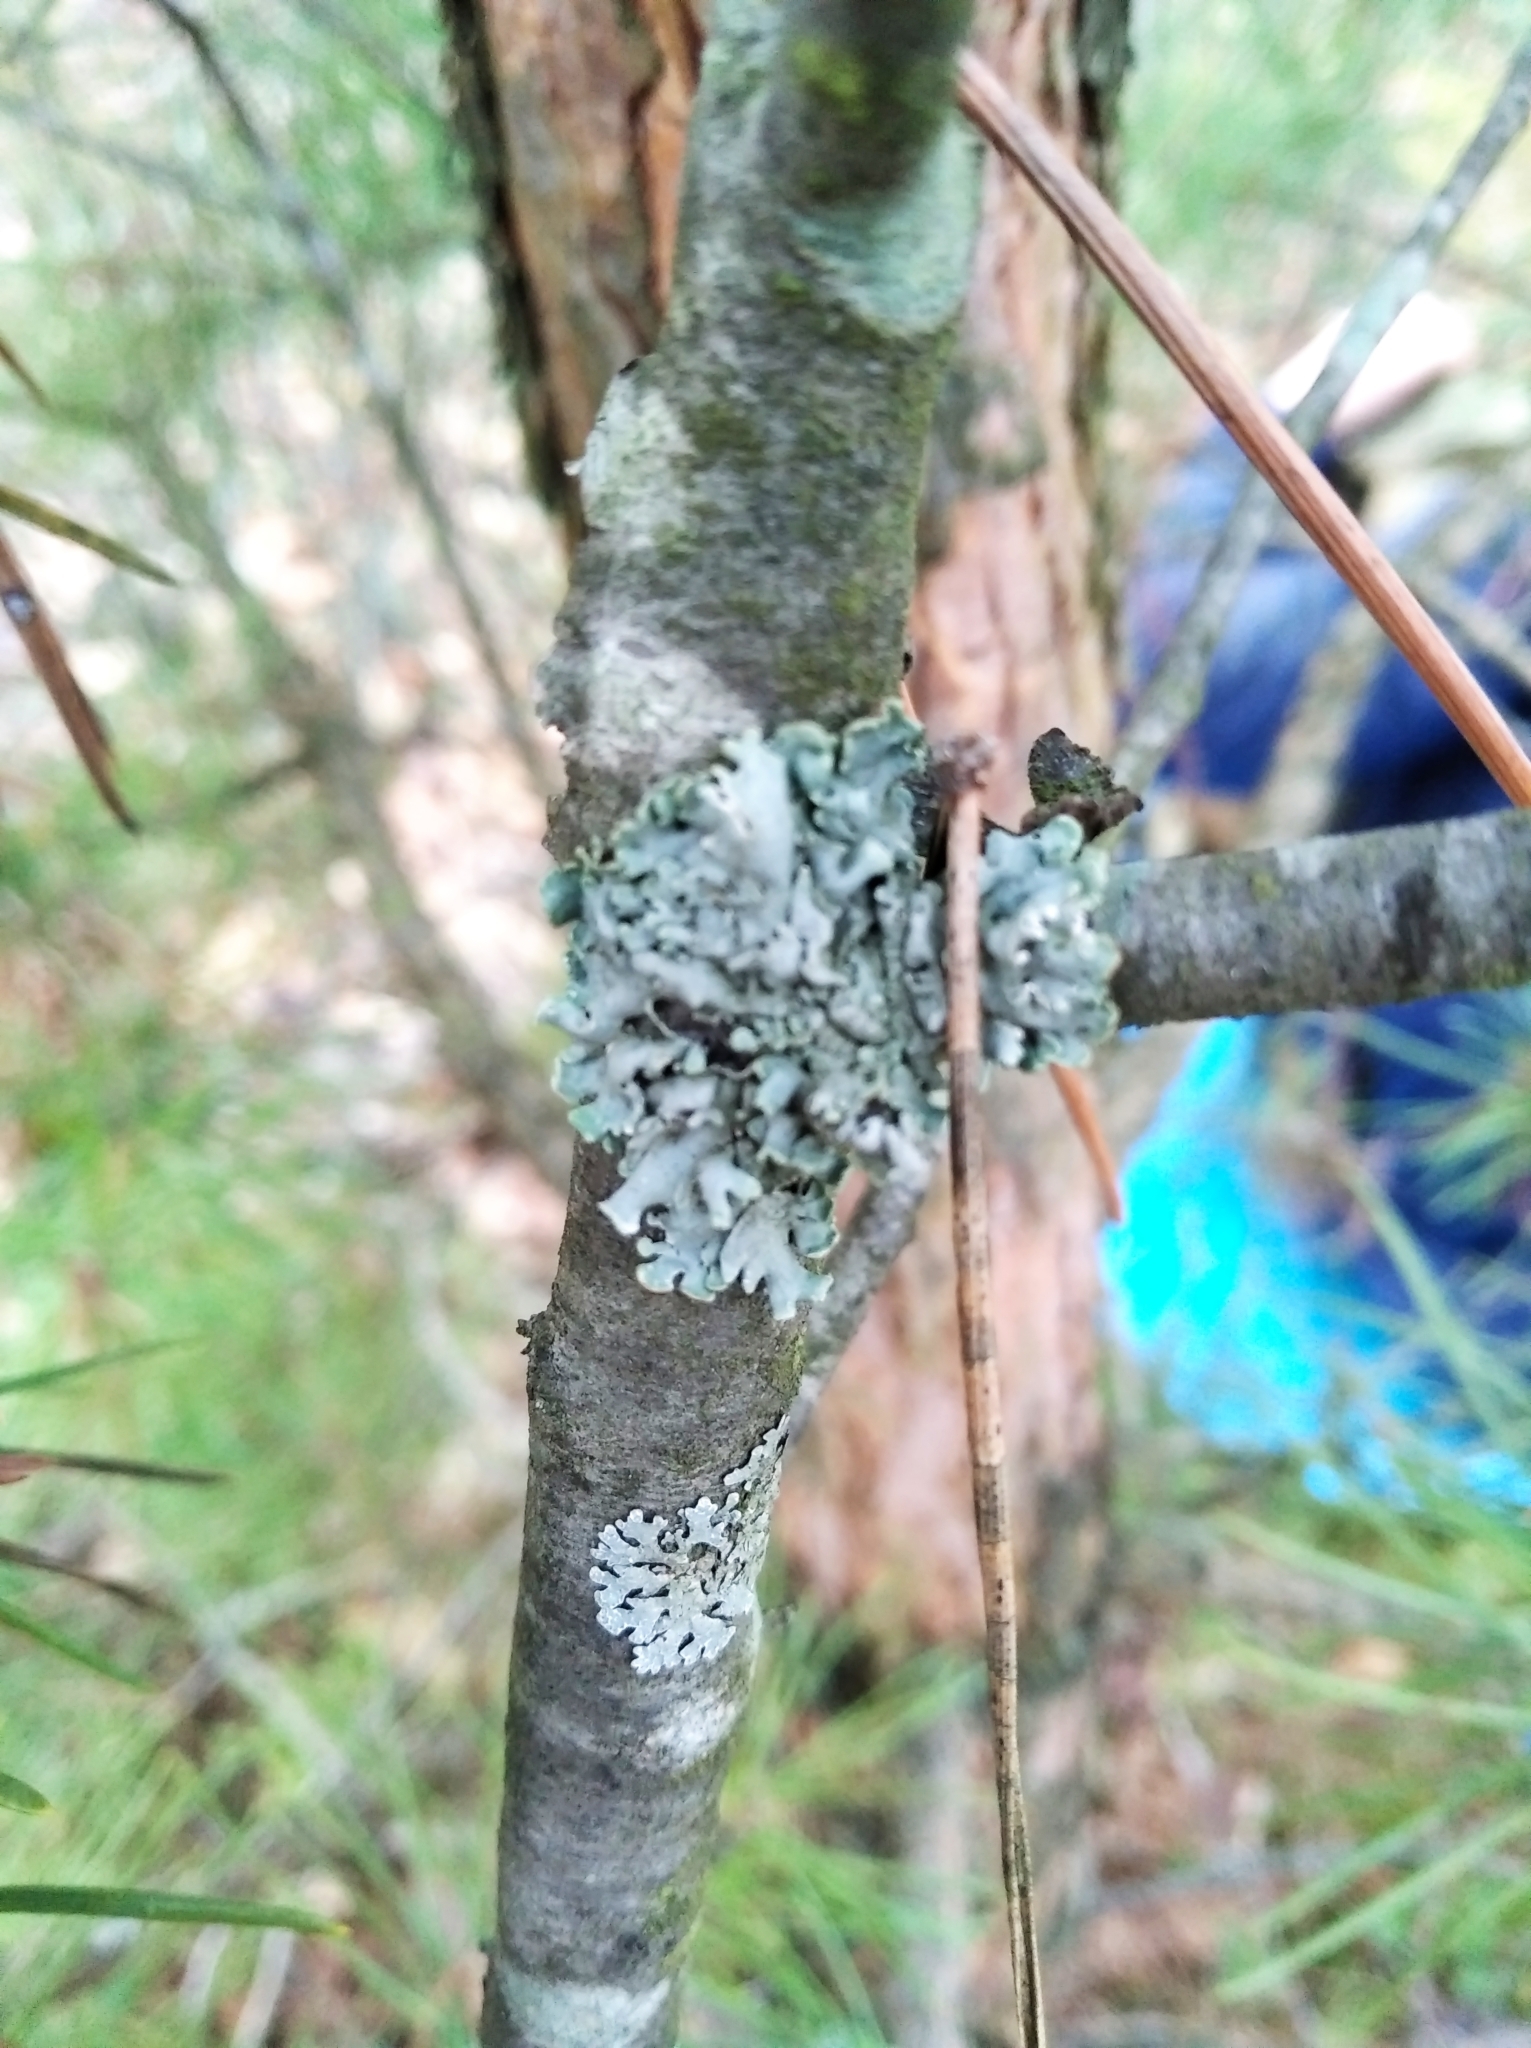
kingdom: Fungi
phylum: Ascomycota
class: Lecanoromycetes
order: Lecanorales
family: Parmeliaceae
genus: Hypogymnia
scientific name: Hypogymnia physodes
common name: Dark crottle
